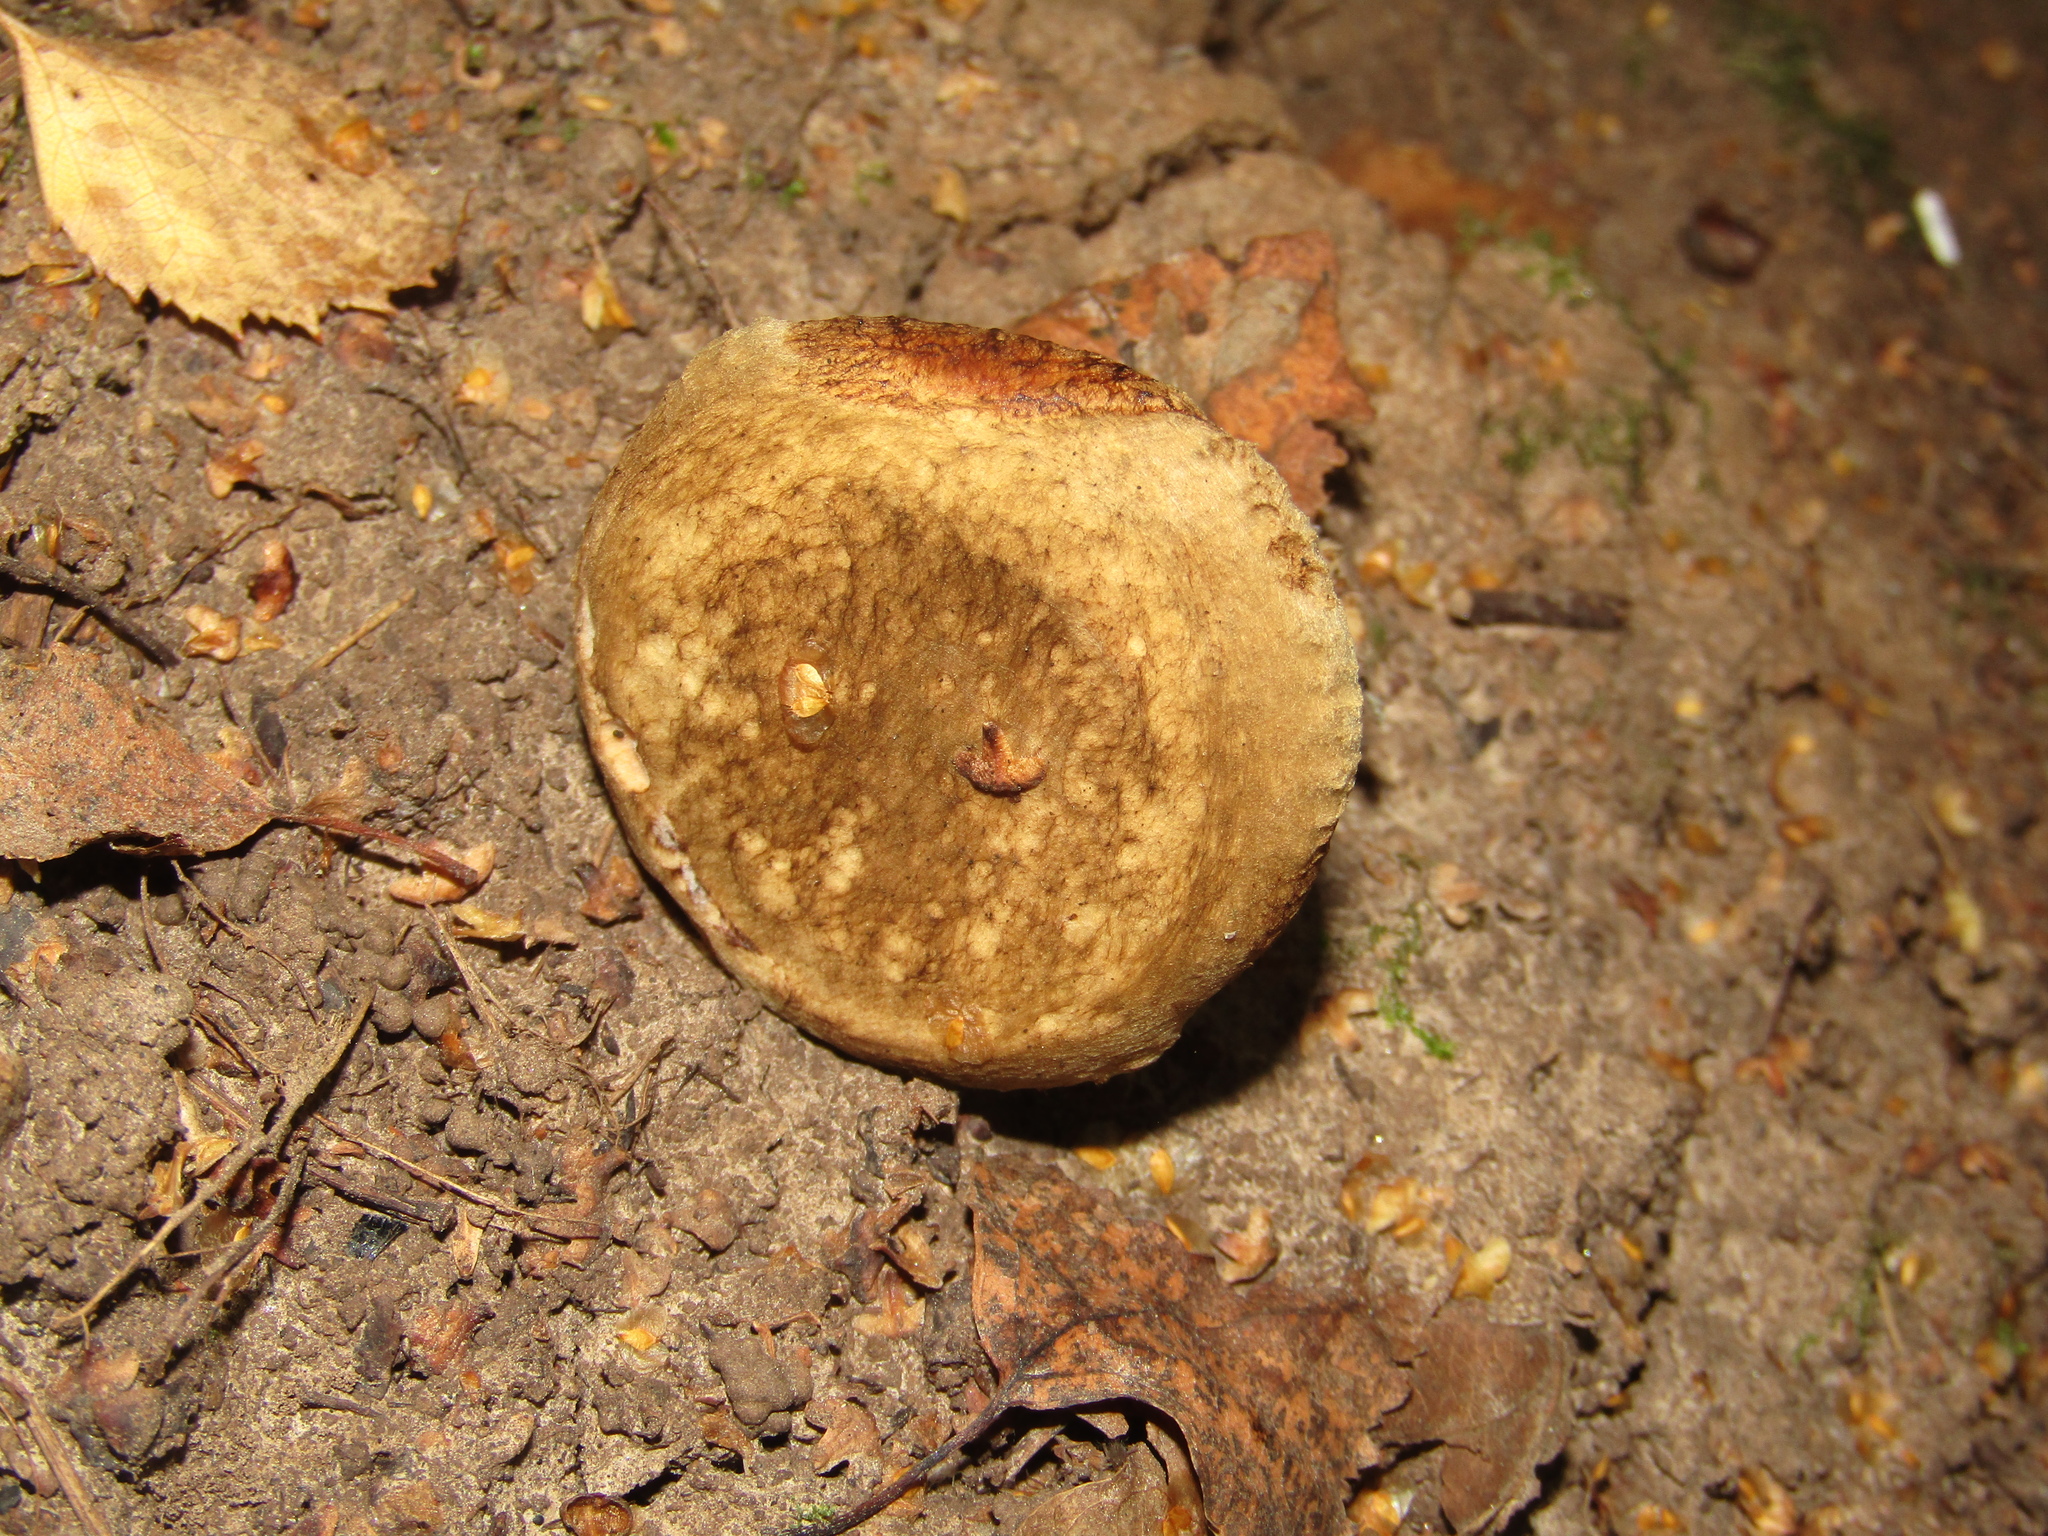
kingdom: Fungi
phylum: Basidiomycota
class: Agaricomycetes
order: Boletales
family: Paxillaceae
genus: Paxillus
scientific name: Paxillus involutus
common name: Brown roll rim
